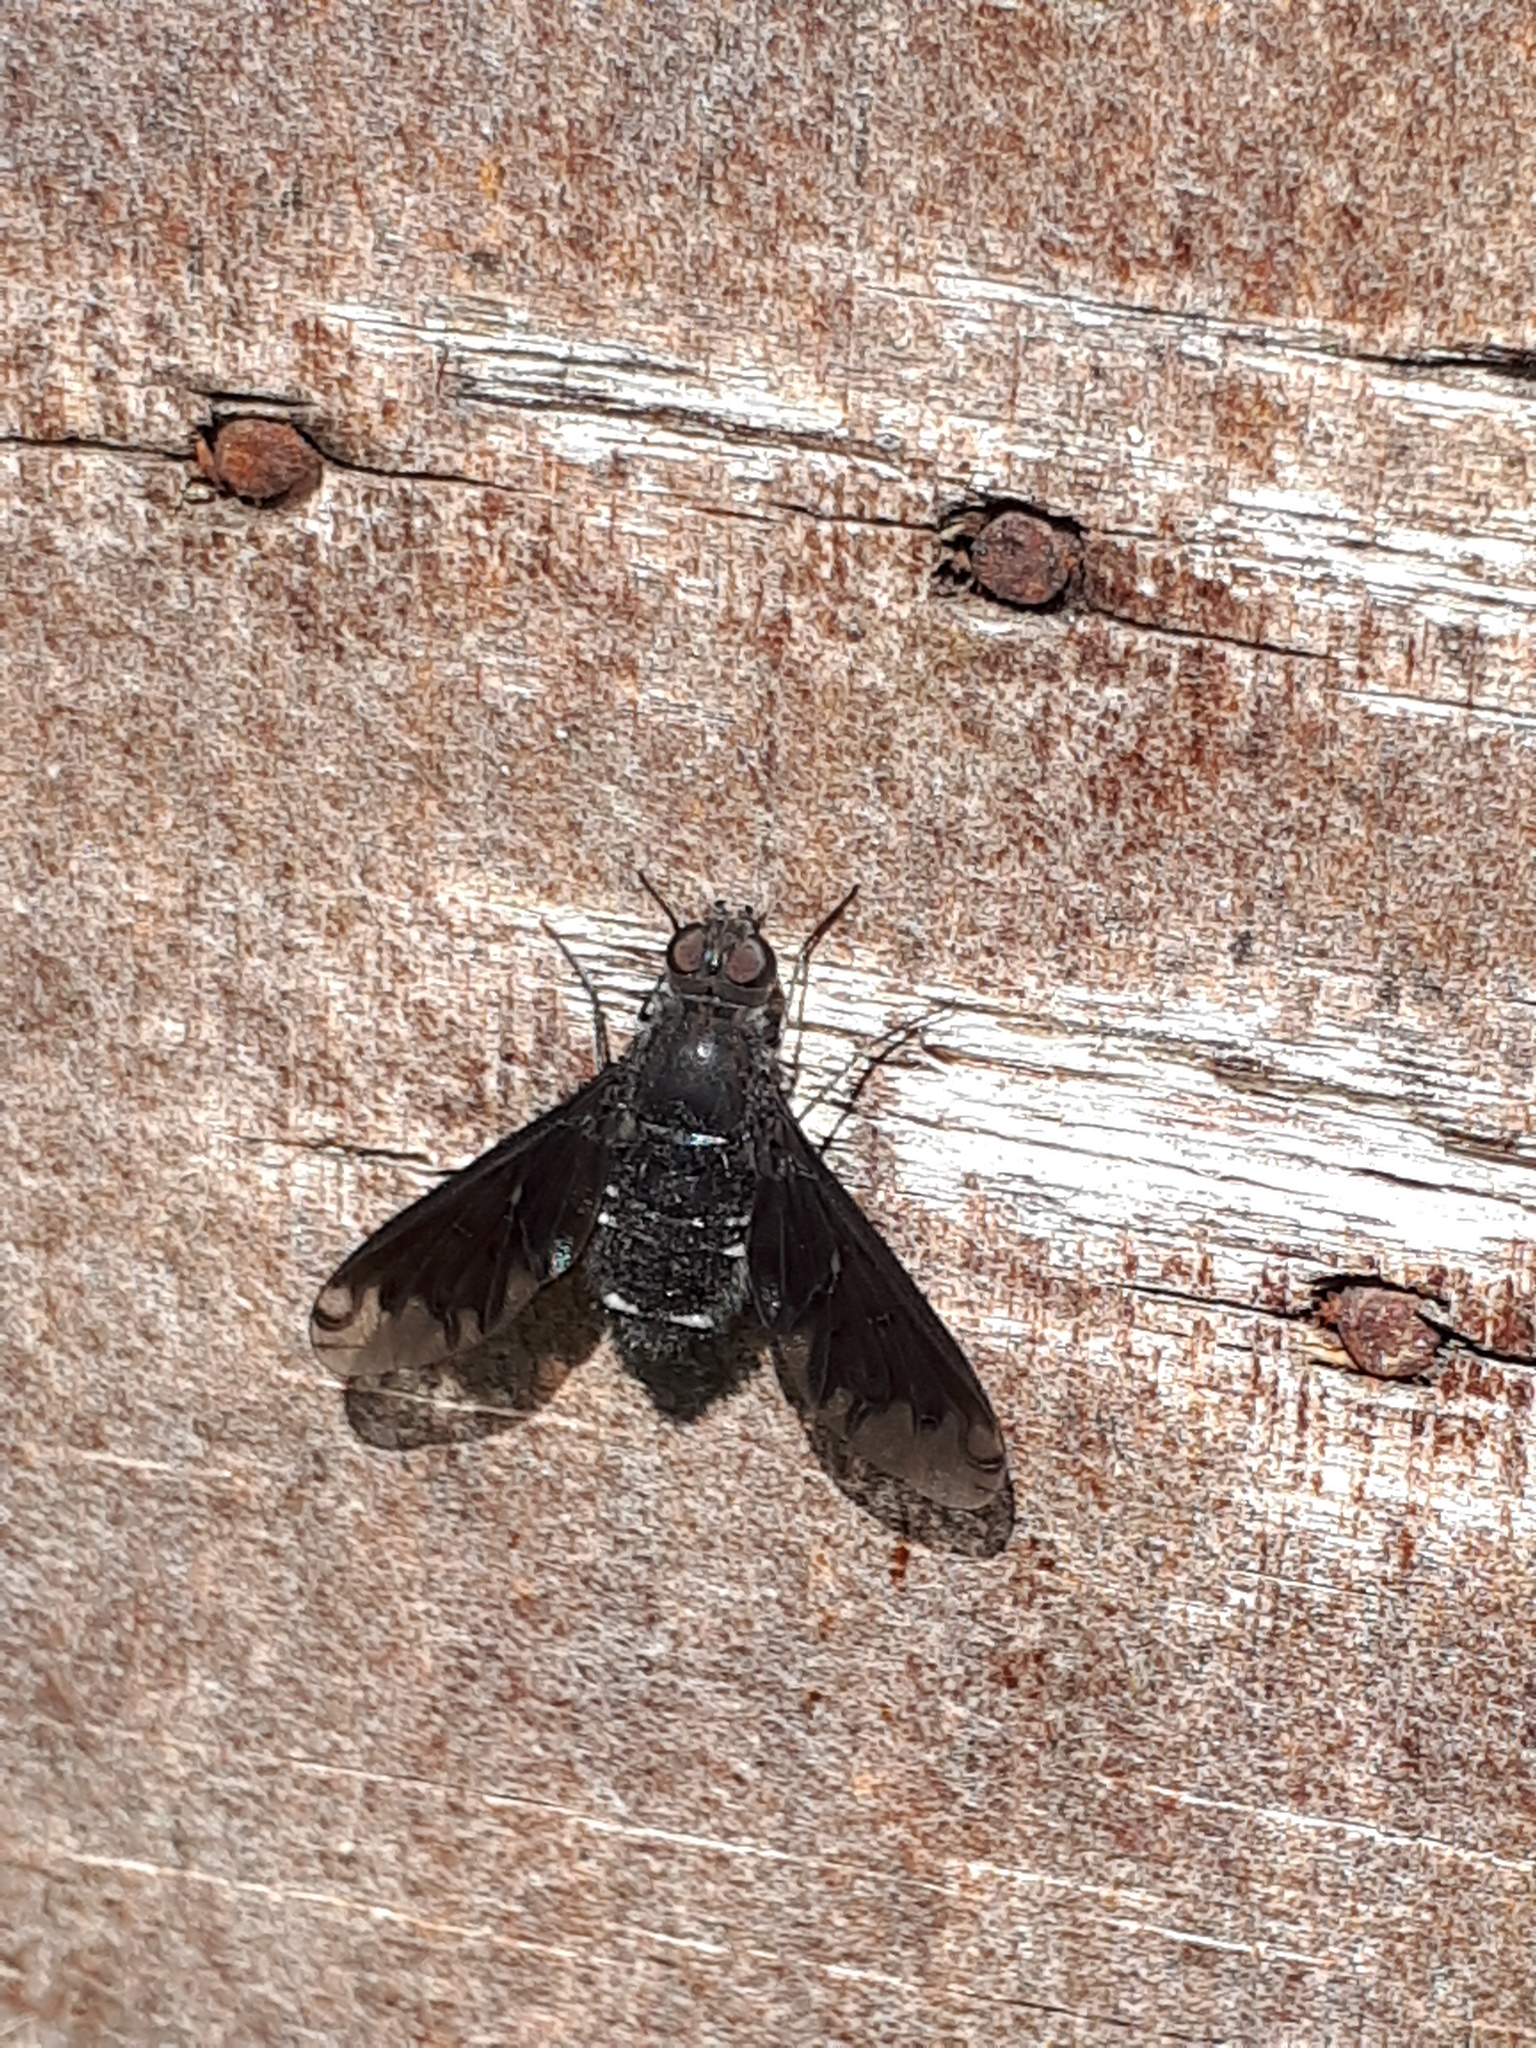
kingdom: Animalia
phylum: Arthropoda
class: Insecta
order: Diptera
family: Bombyliidae
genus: Anthrax
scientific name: Anthrax anthrax
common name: Anthracite bee-fly
